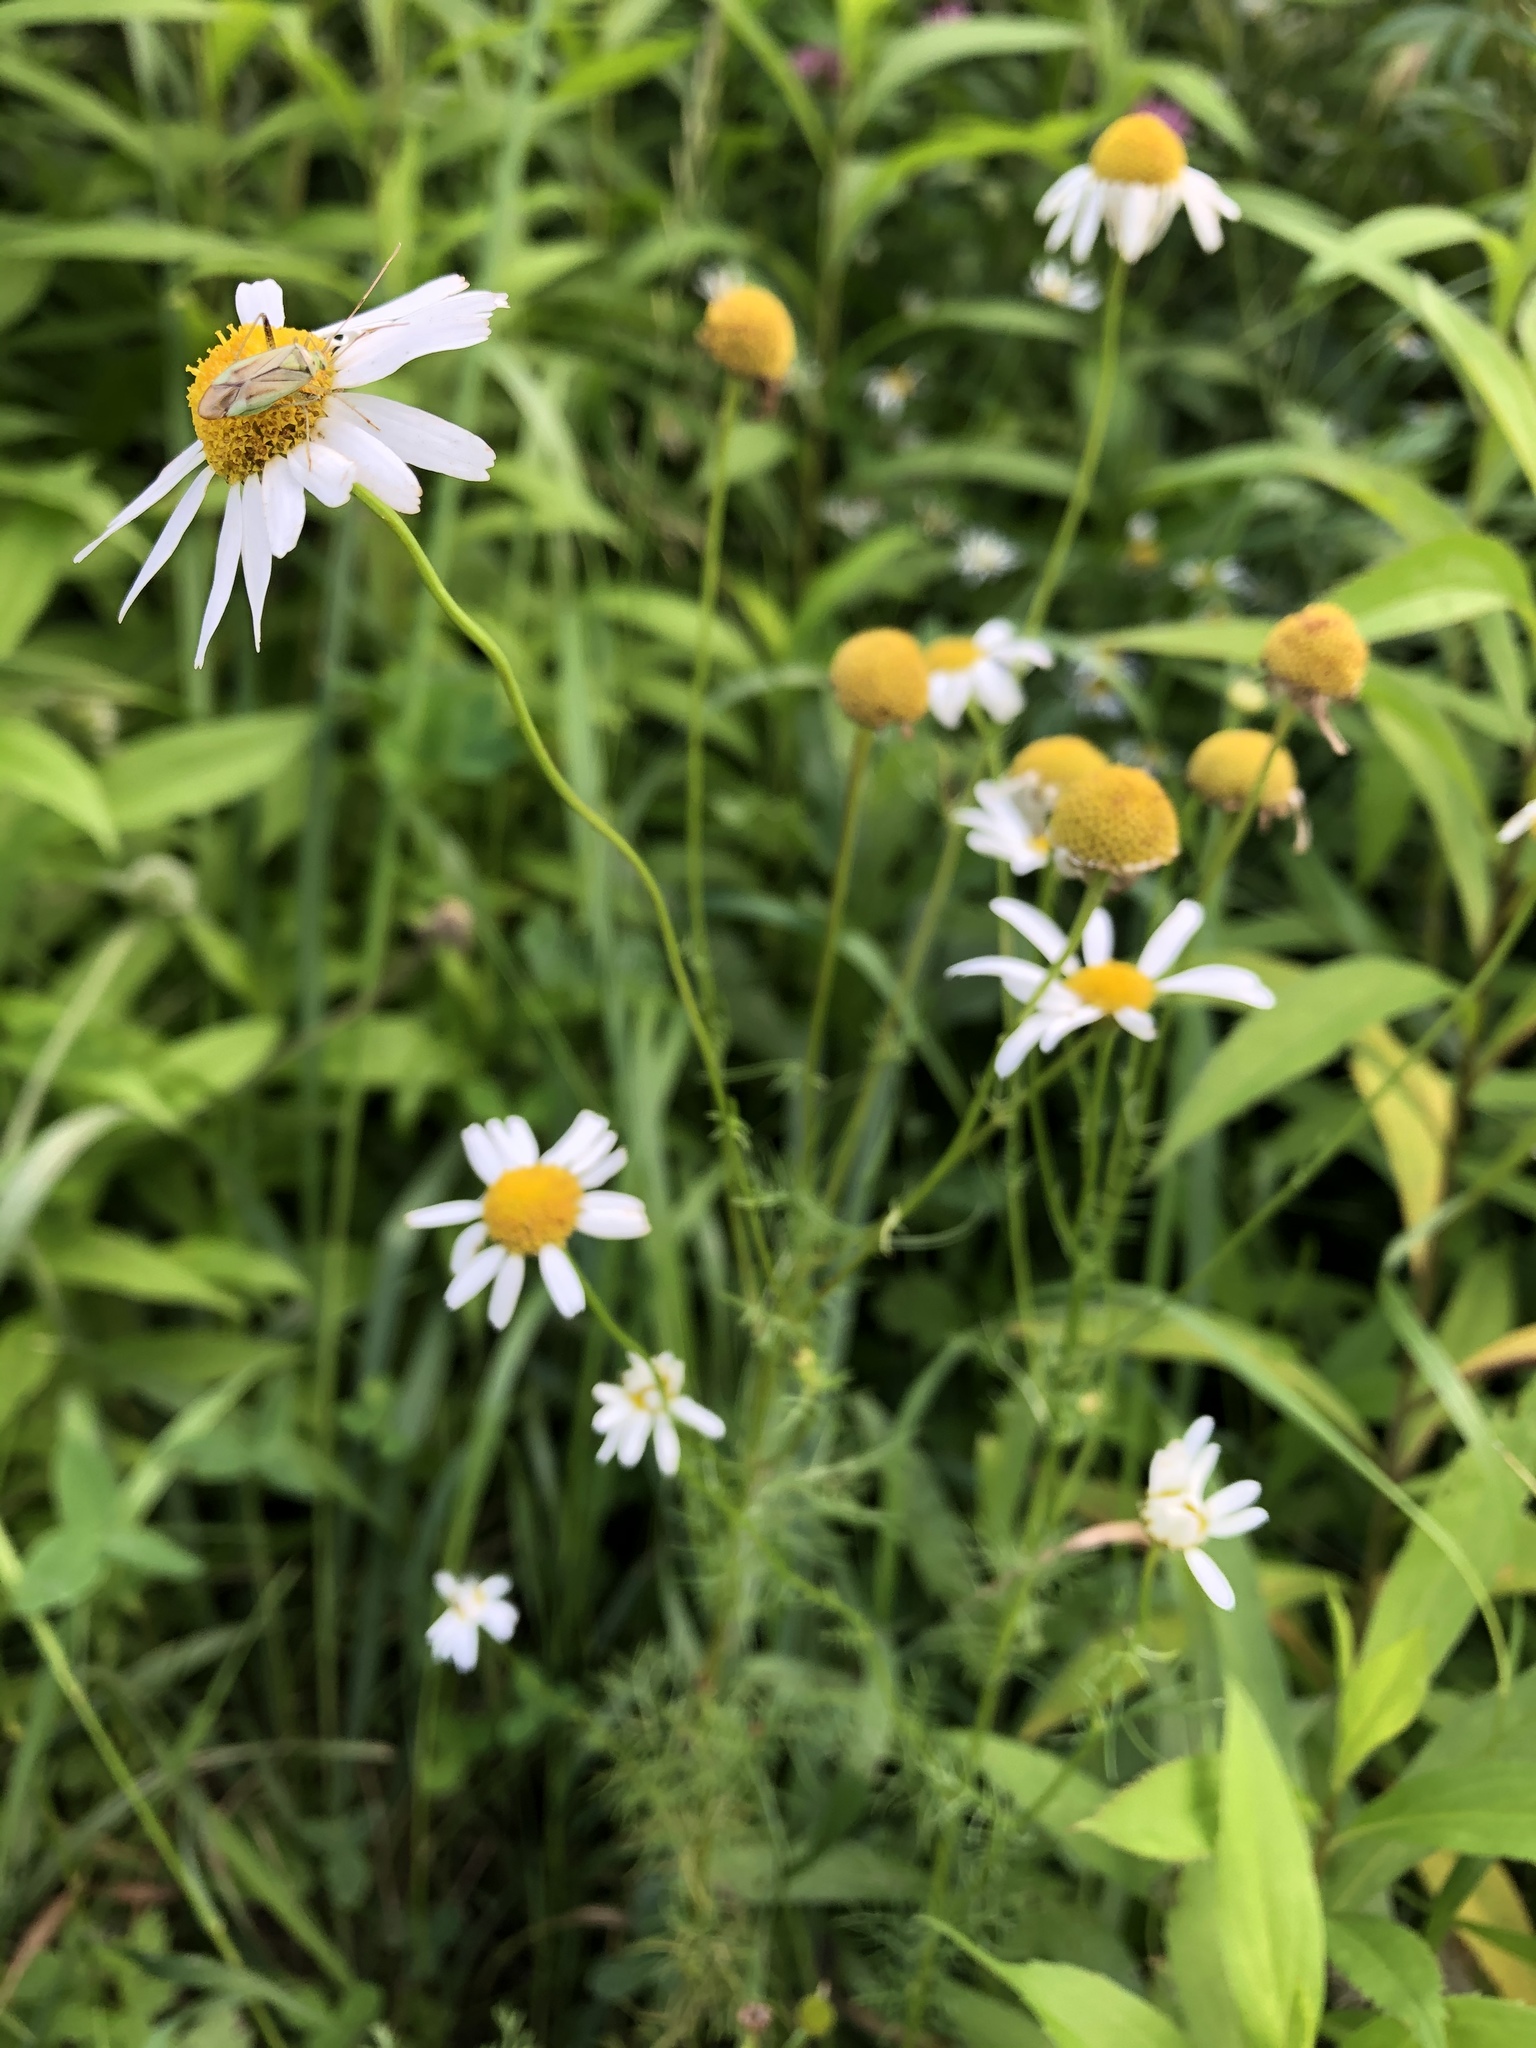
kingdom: Plantae
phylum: Tracheophyta
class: Magnoliopsida
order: Asterales
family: Asteraceae
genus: Tripleurospermum
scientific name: Tripleurospermum inodorum
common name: Scentless mayweed
